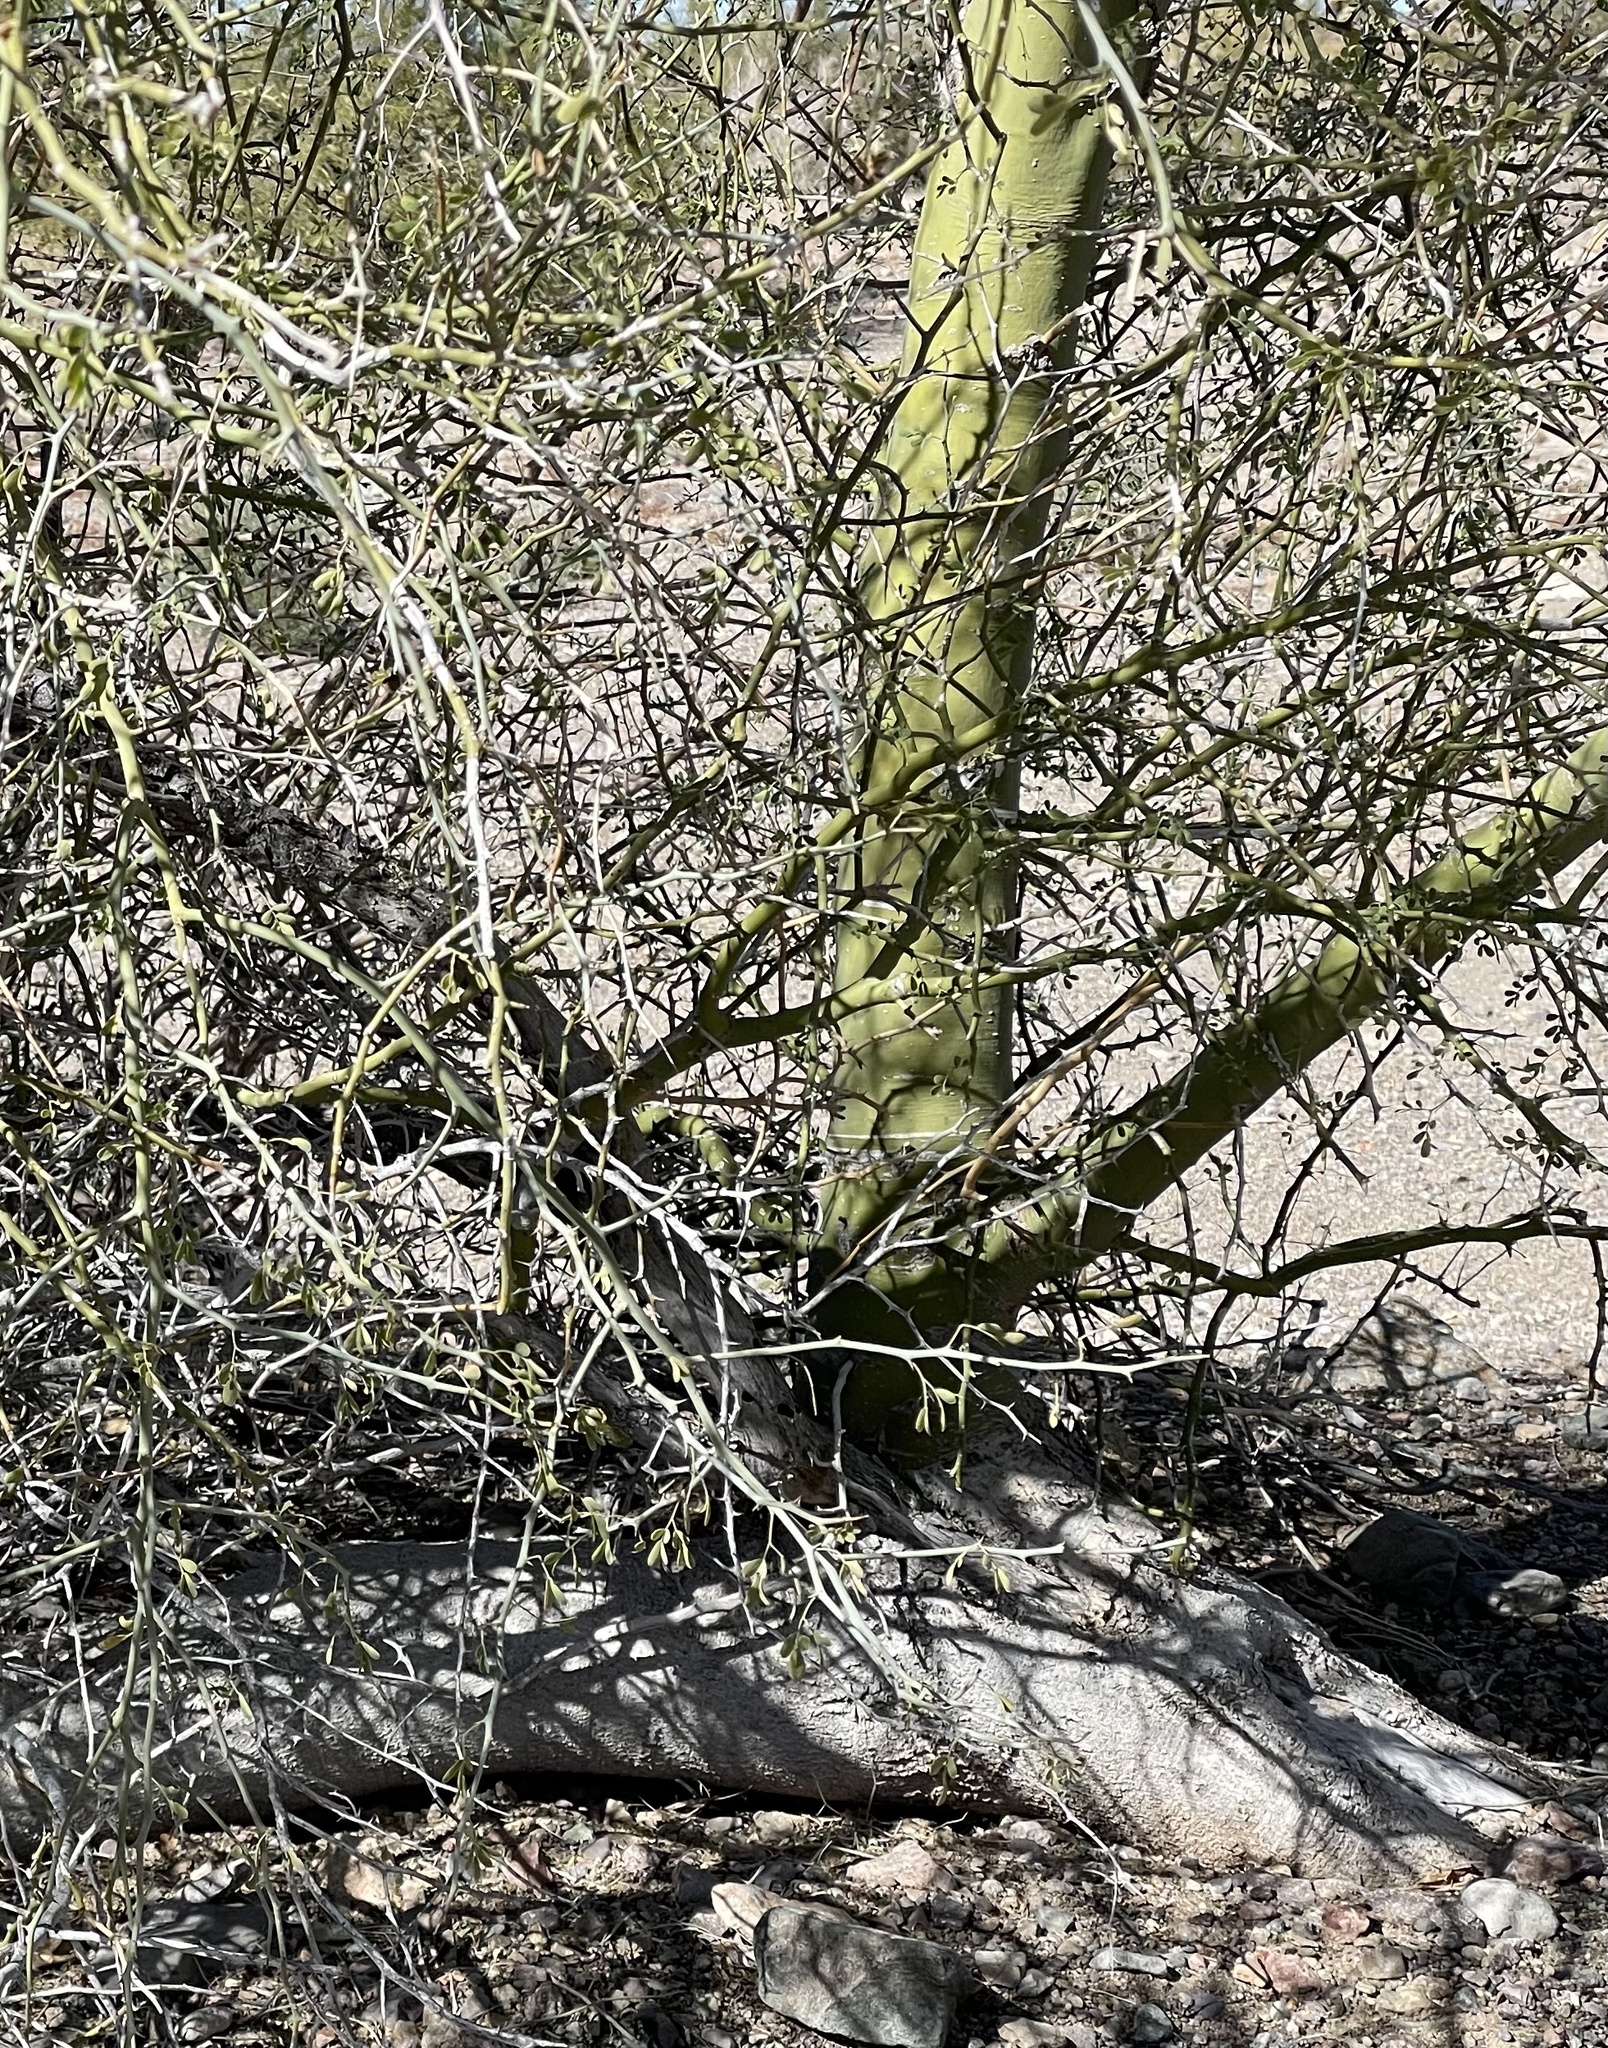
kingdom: Plantae
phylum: Tracheophyta
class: Magnoliopsida
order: Fabales
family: Fabaceae
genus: Parkinsonia
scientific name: Parkinsonia florida
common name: Blue paloverde
